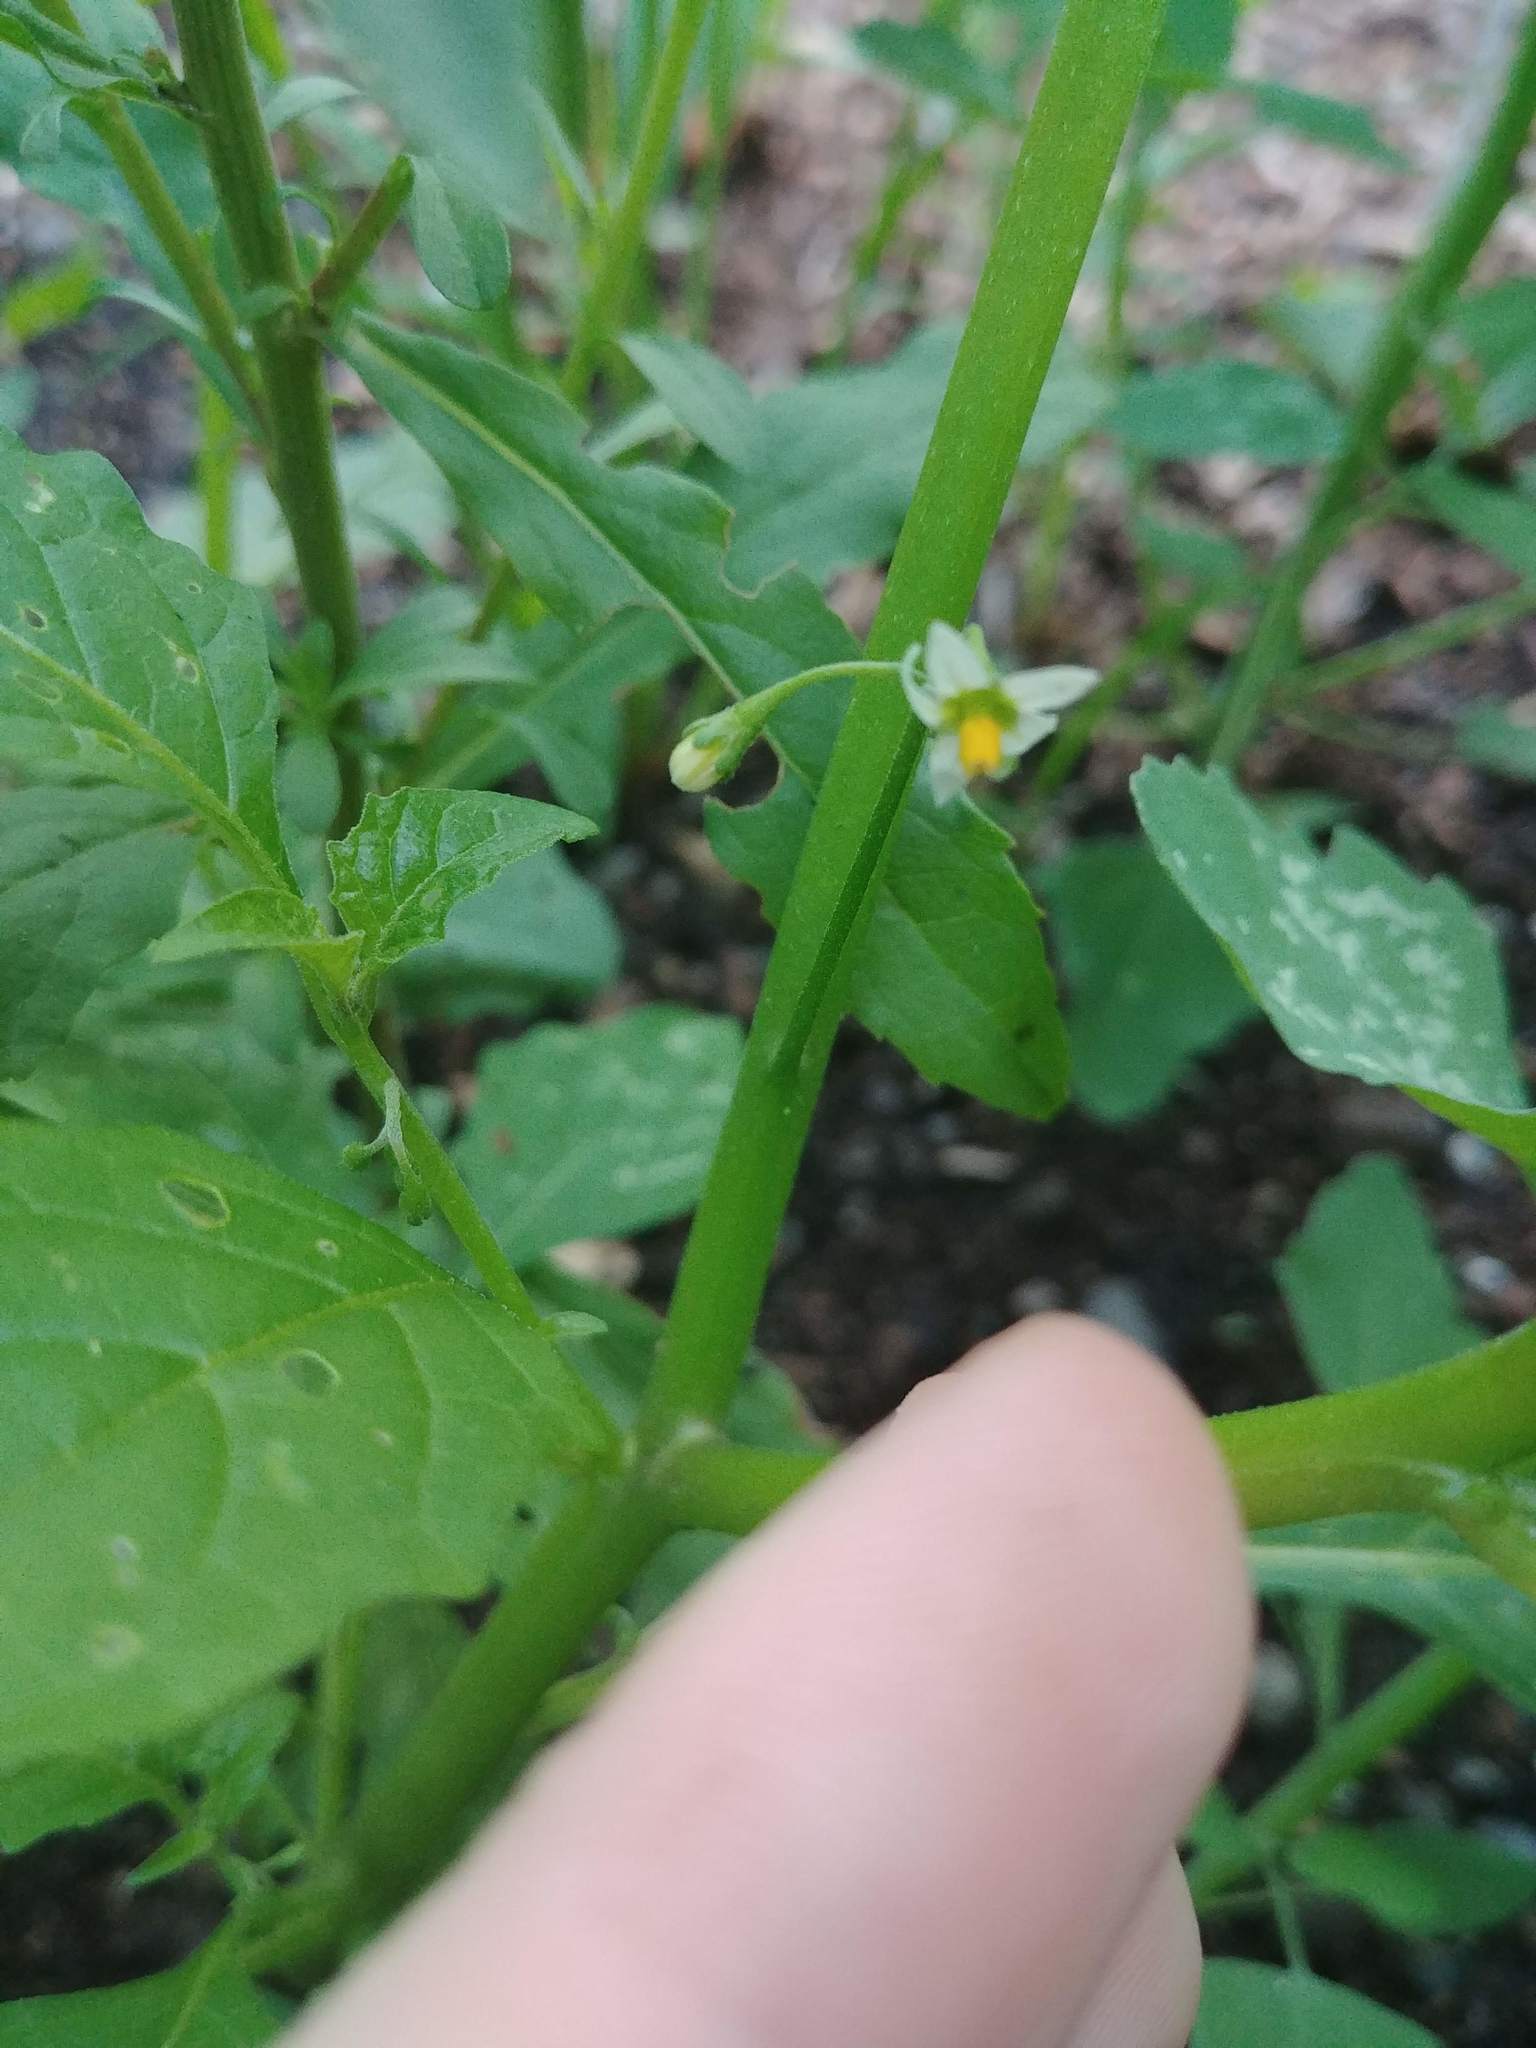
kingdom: Plantae
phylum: Tracheophyta
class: Magnoliopsida
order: Solanales
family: Solanaceae
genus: Solanum
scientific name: Solanum emulans
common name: Eastern black nightshade
